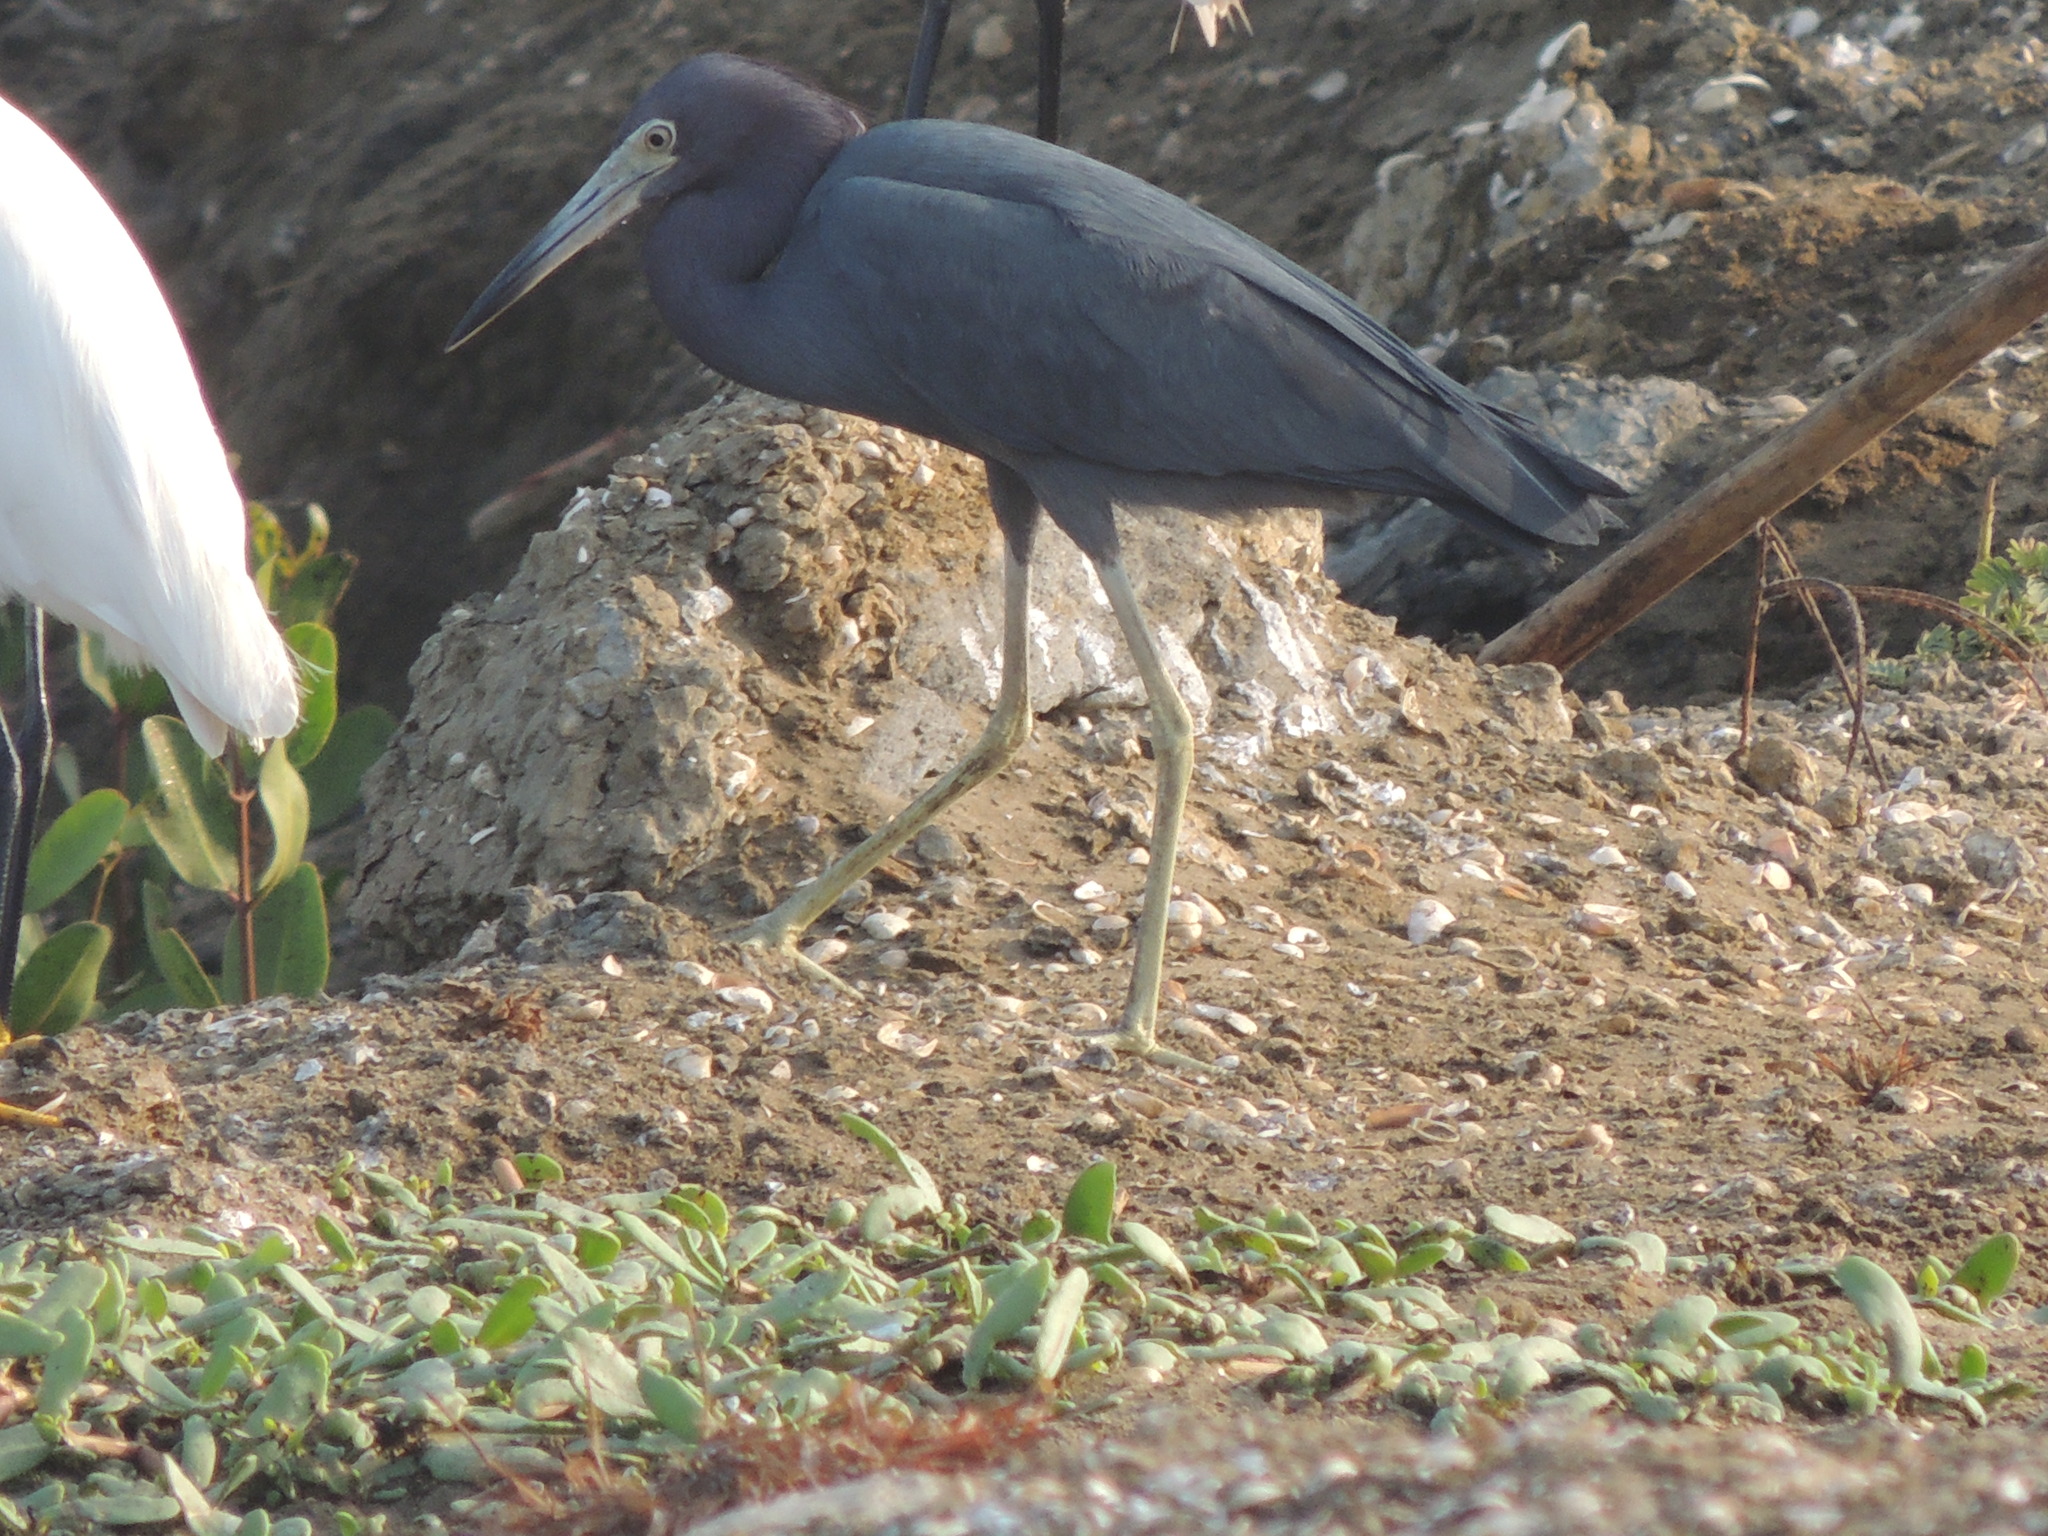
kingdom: Animalia
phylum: Chordata
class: Aves
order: Pelecaniformes
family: Ardeidae
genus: Egretta
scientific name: Egretta caerulea
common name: Little blue heron
